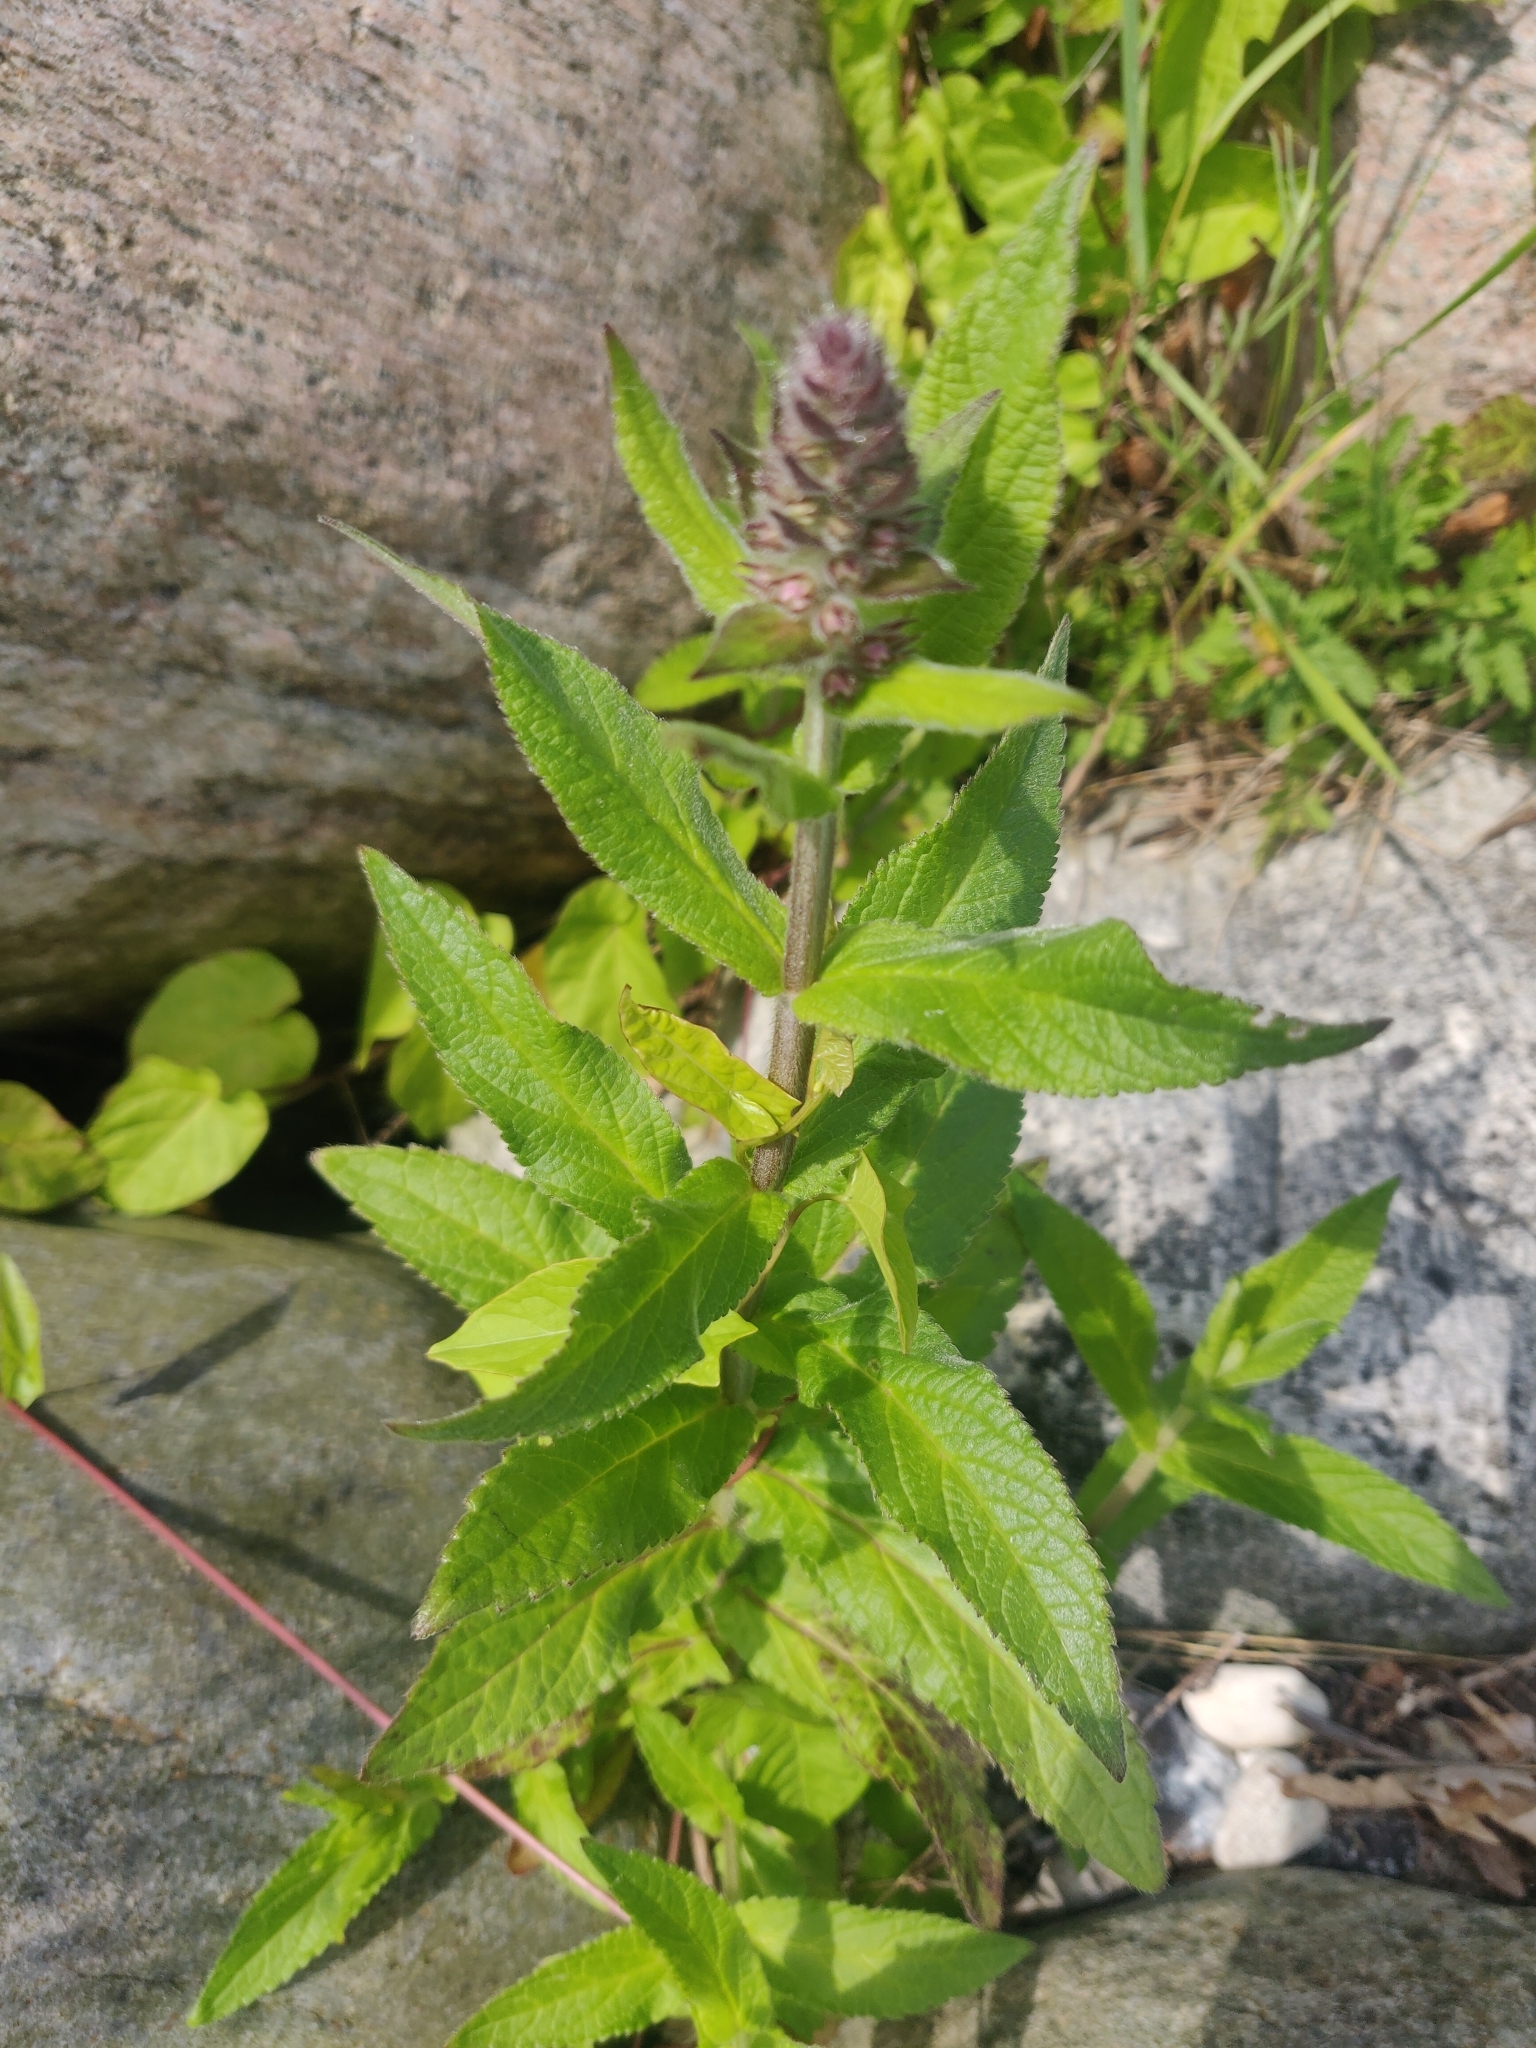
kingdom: Plantae
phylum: Tracheophyta
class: Magnoliopsida
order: Lamiales
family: Lamiaceae
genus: Stachys
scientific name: Stachys palustris
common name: Marsh woundwort
